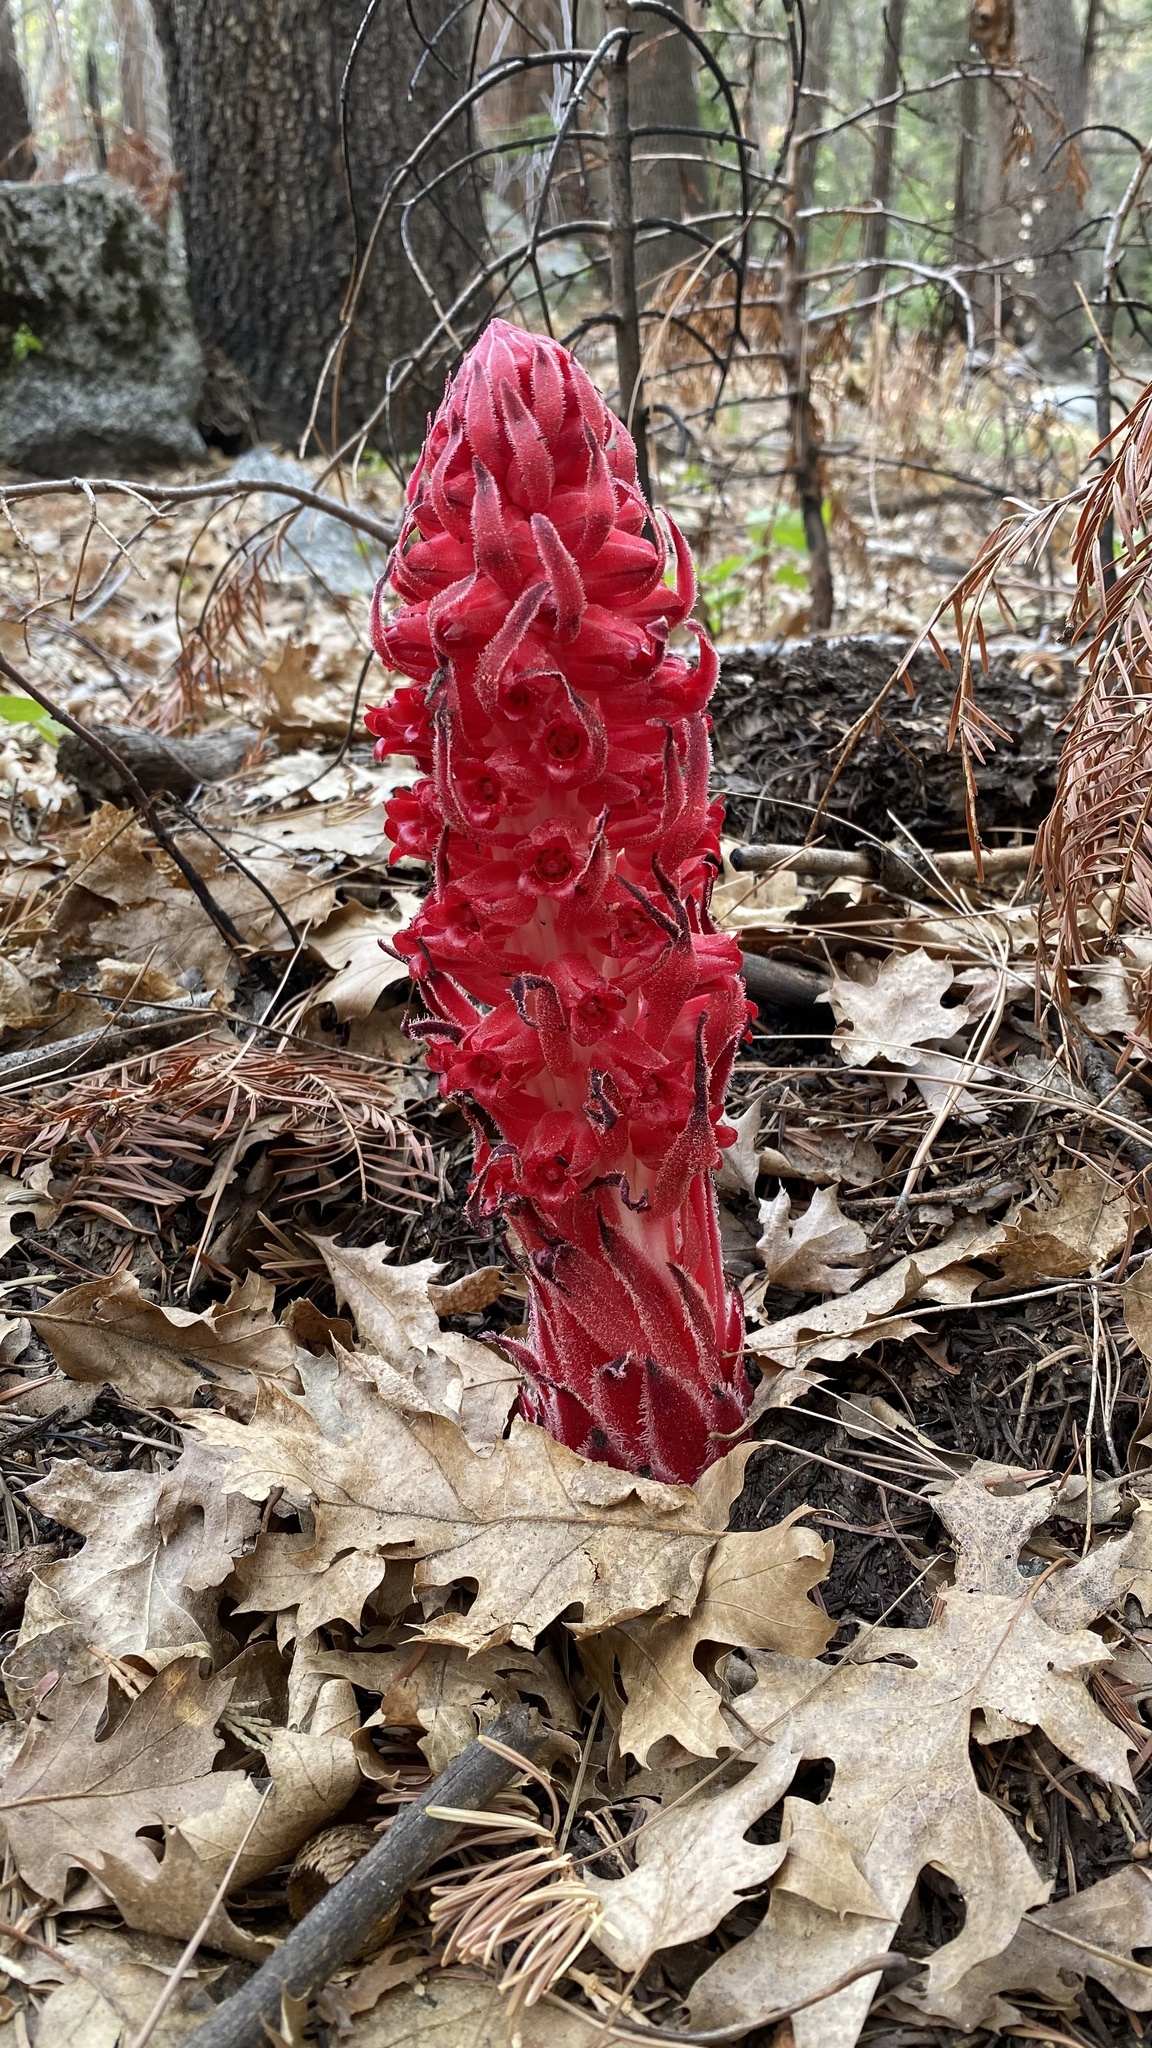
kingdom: Plantae
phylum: Tracheophyta
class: Magnoliopsida
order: Ericales
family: Ericaceae
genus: Sarcodes
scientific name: Sarcodes sanguinea
